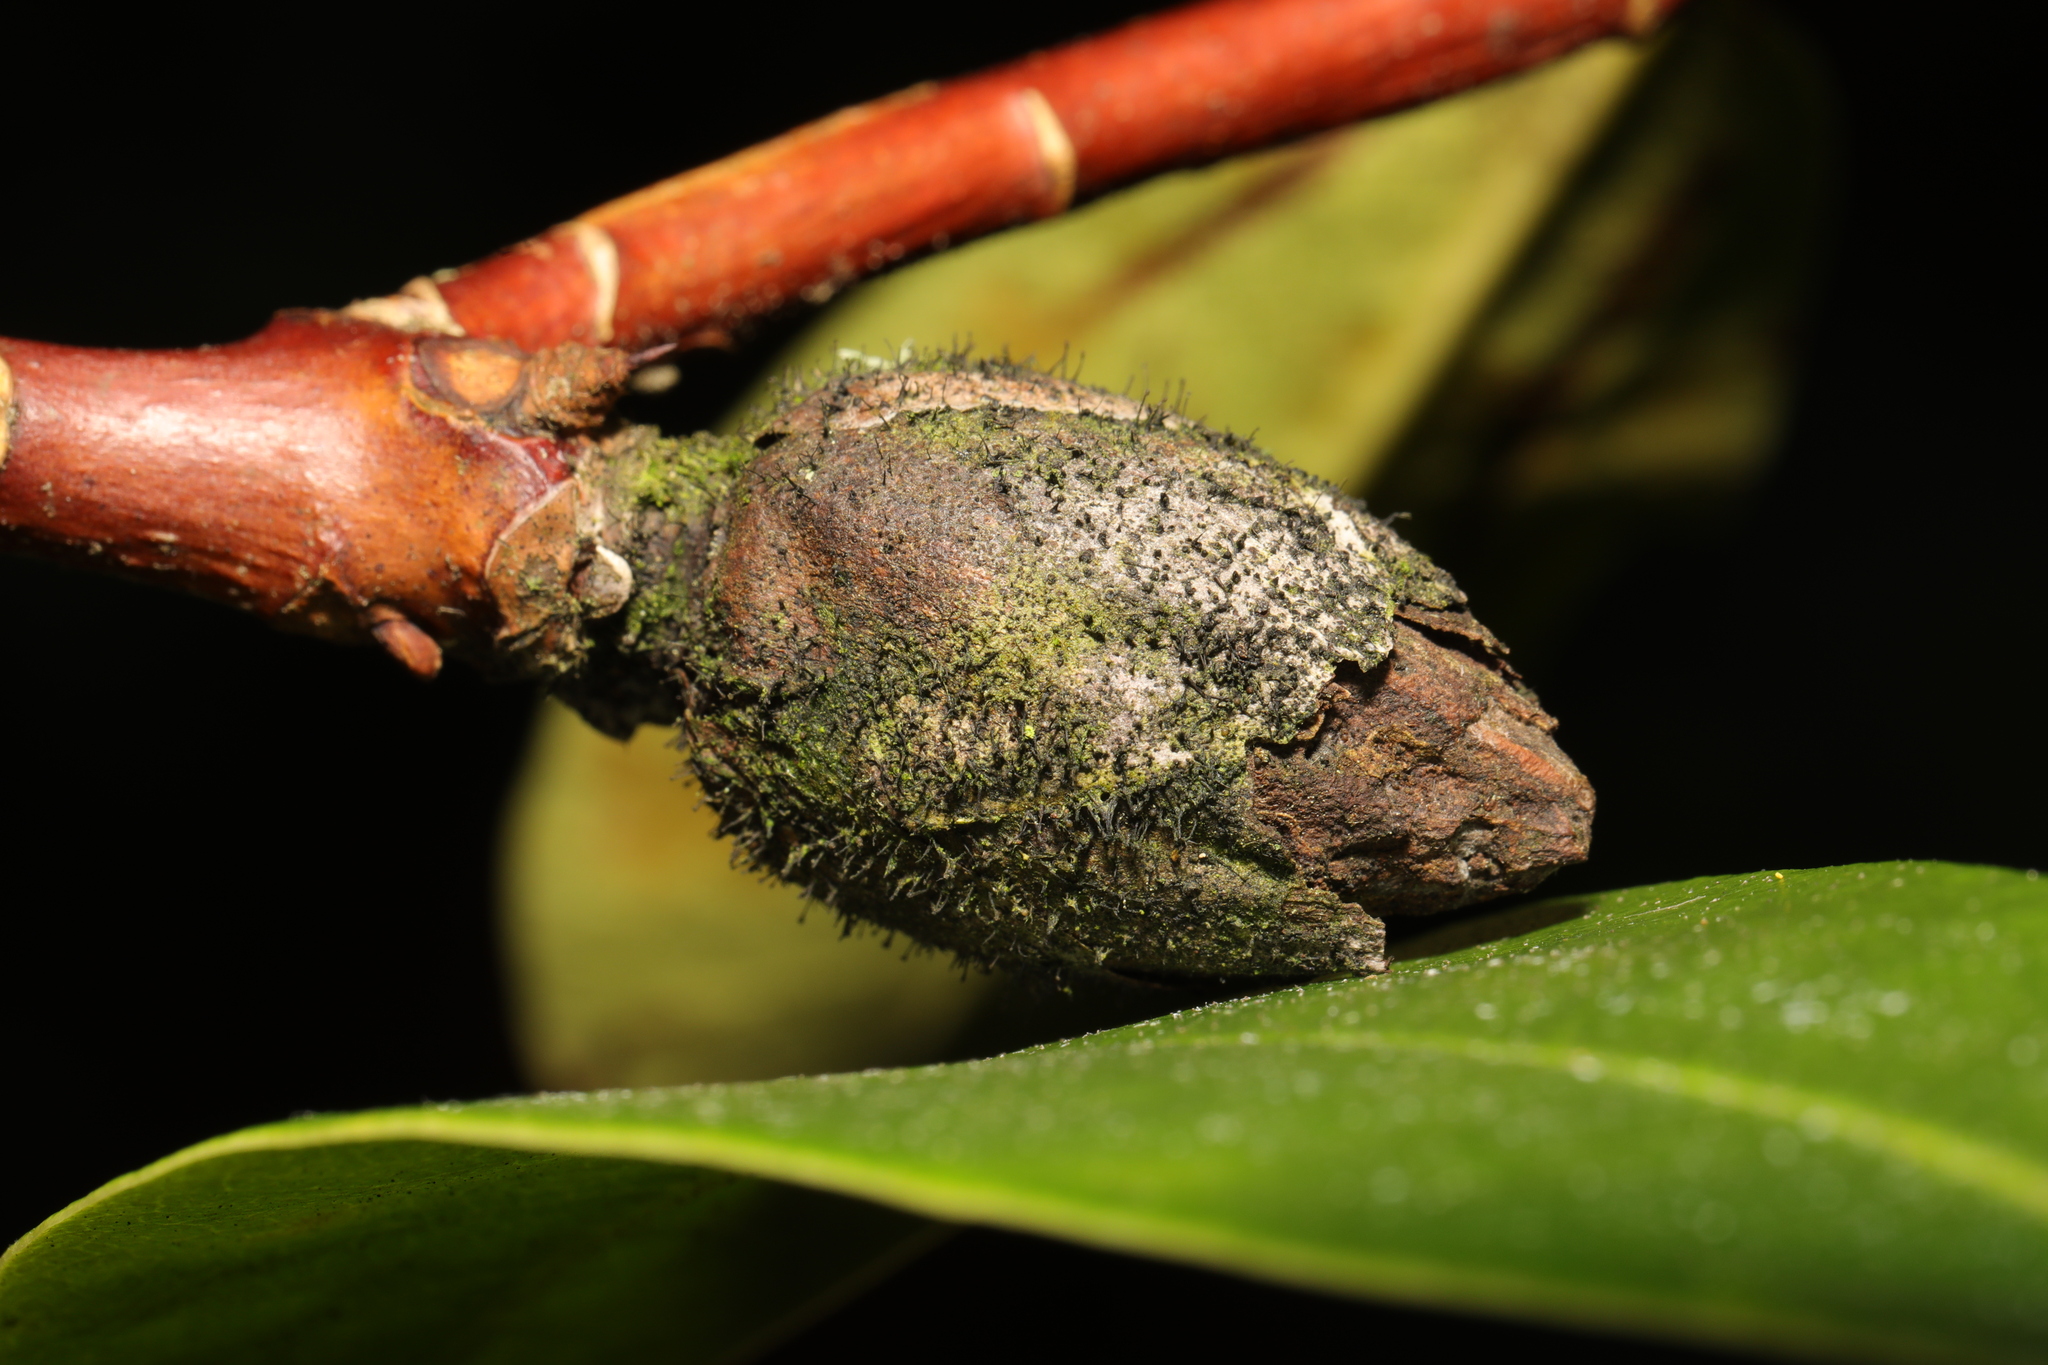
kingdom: Fungi
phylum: Ascomycota
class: Dothideomycetes
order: Pleosporales
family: Melanommataceae
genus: Seifertia
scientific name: Seifertia azaleae
